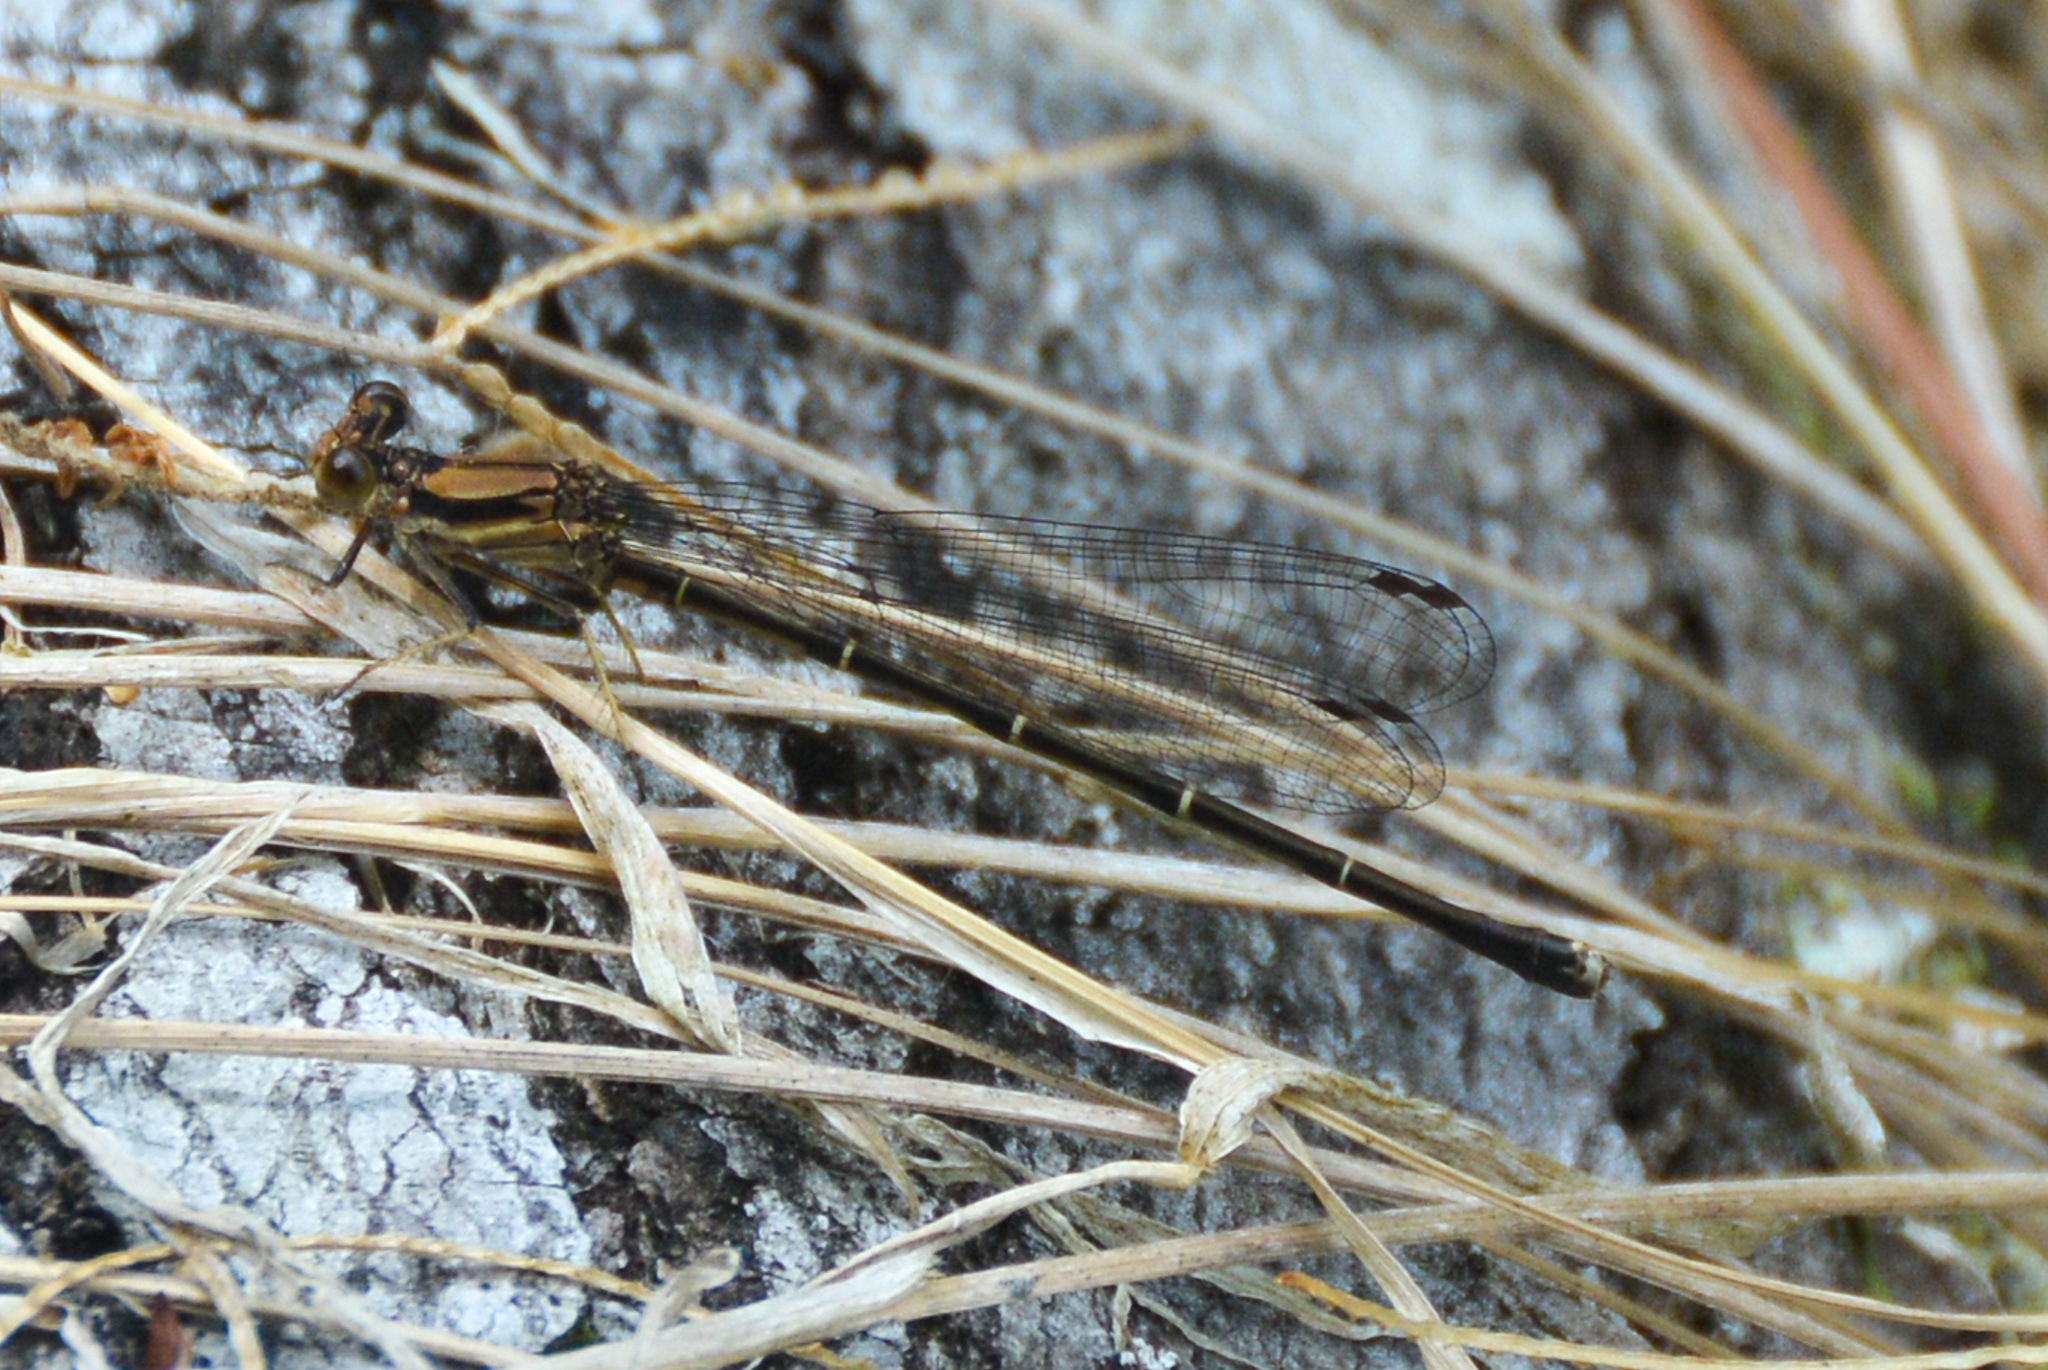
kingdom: Animalia
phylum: Arthropoda
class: Insecta
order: Odonata
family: Coenagrionidae
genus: Argia
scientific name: Argia tibialis
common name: Blue-tipped dancer
